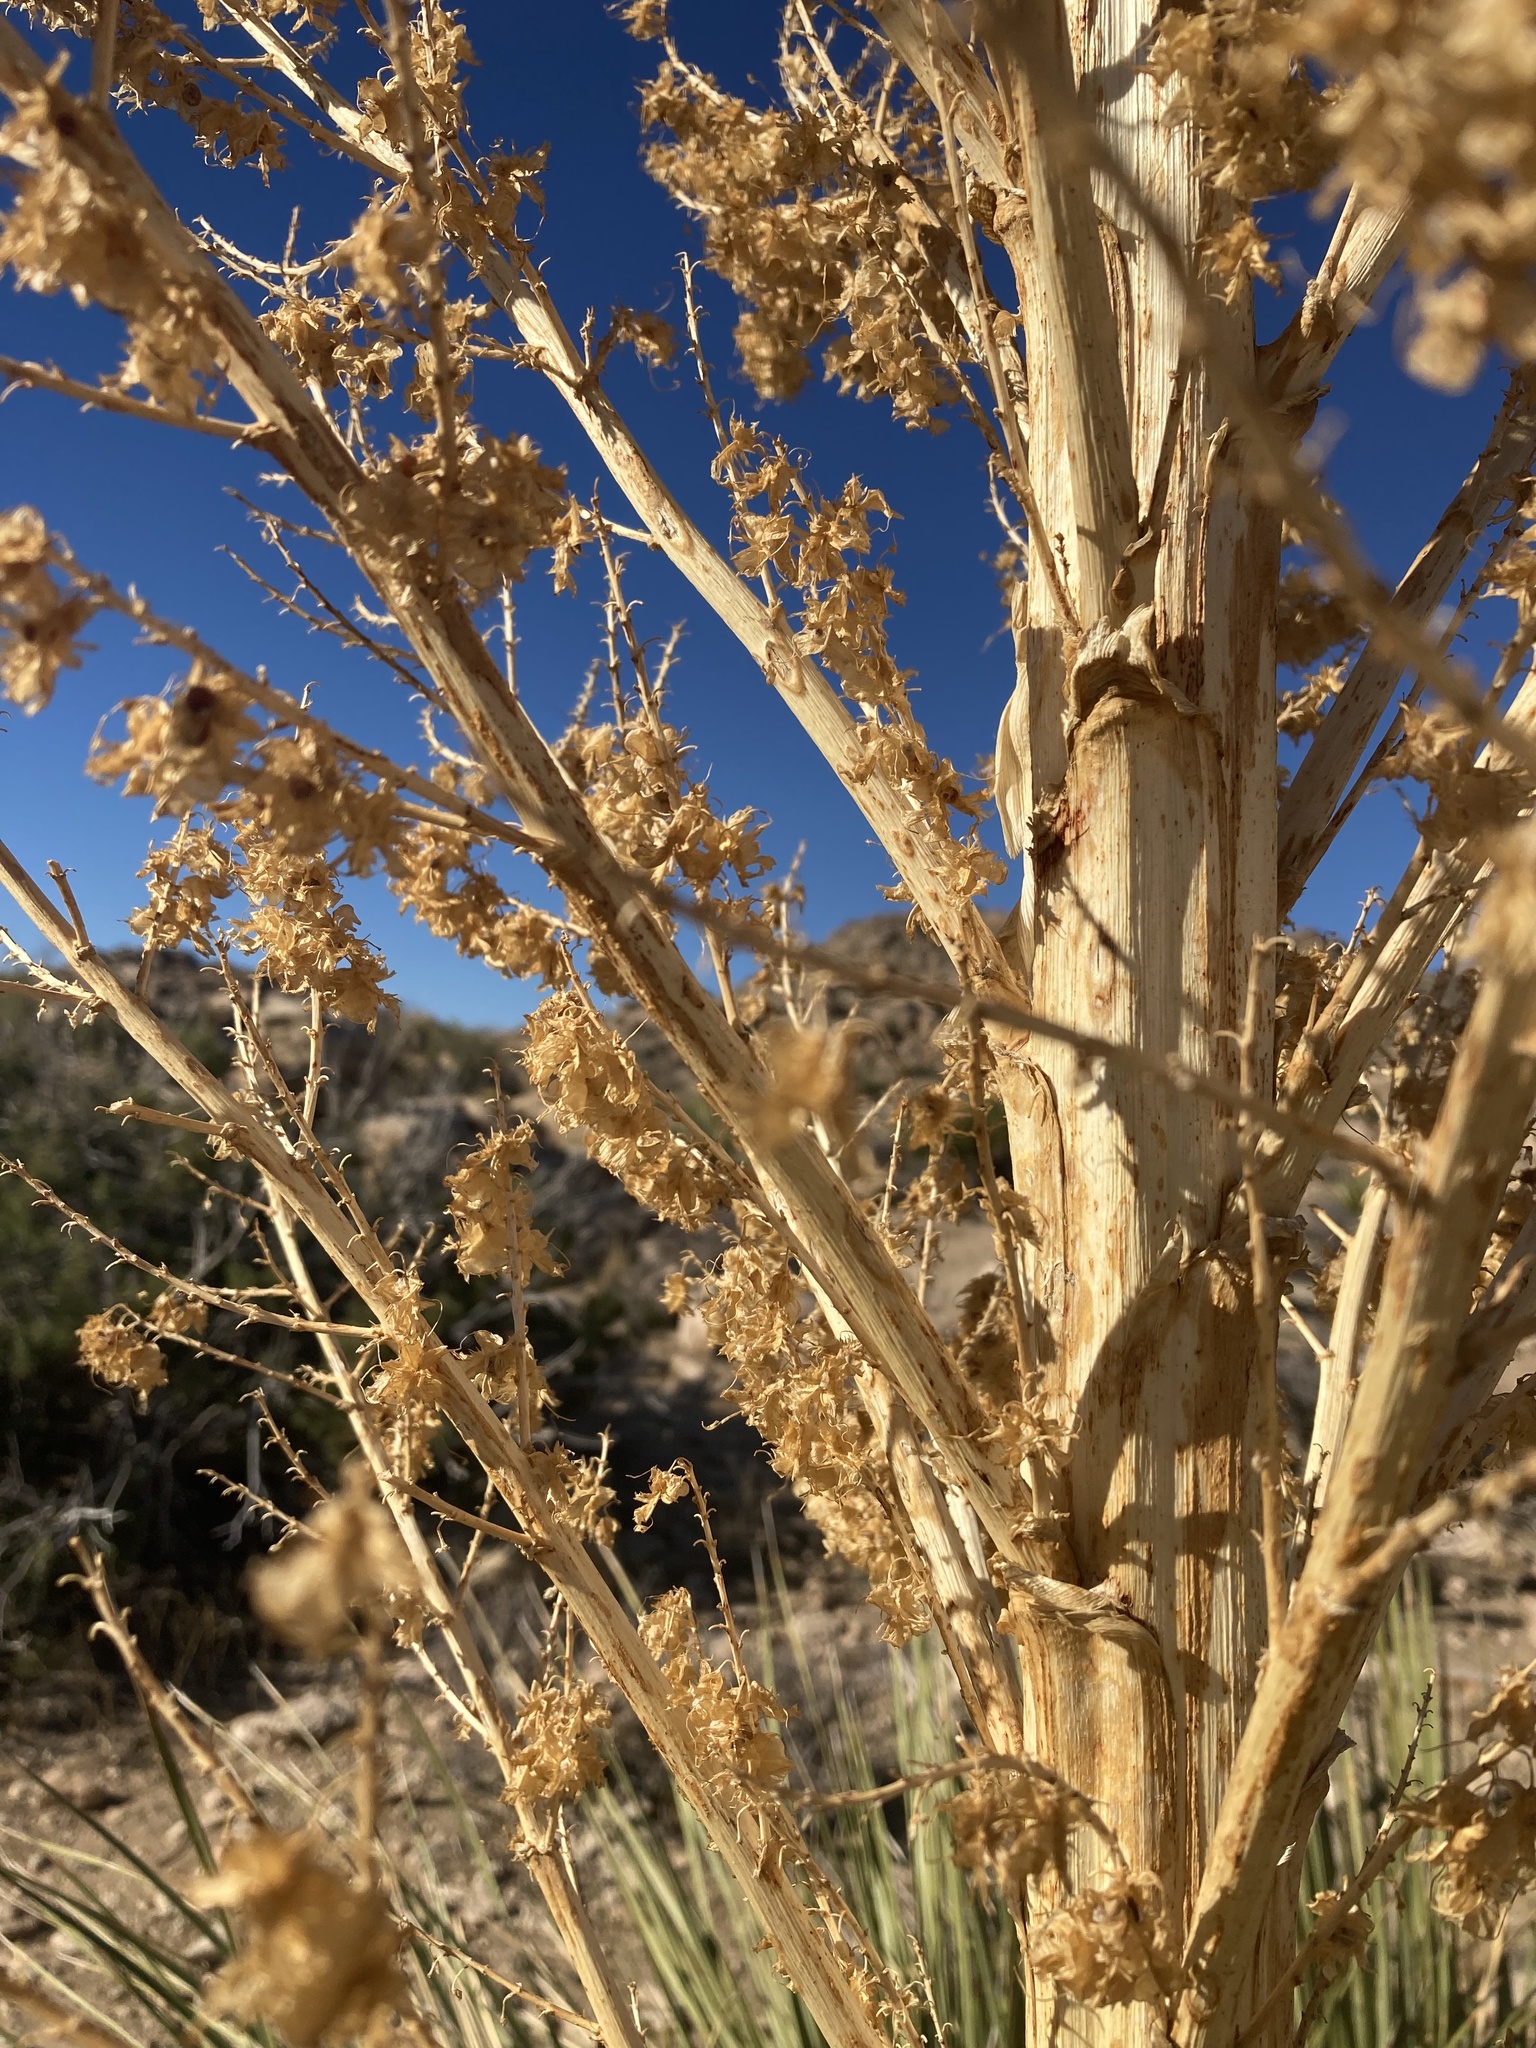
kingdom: Plantae
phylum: Tracheophyta
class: Liliopsida
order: Asparagales
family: Asparagaceae
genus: Nolina
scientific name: Nolina parryi
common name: Parry nolina
